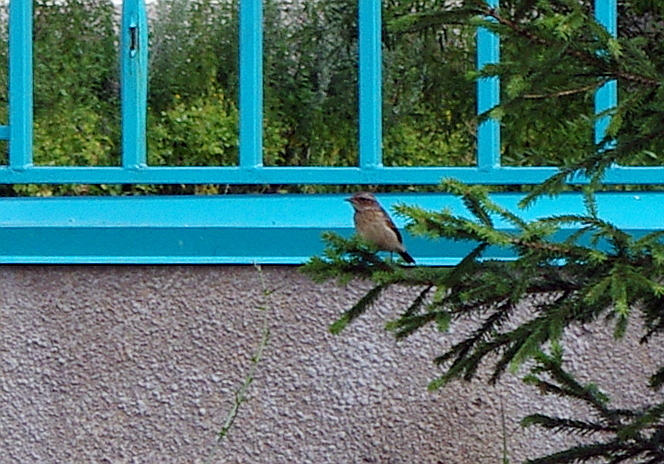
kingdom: Animalia
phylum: Chordata
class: Aves
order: Passeriformes
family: Muscicapidae
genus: Saxicola
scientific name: Saxicola rubetra
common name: Whinchat
